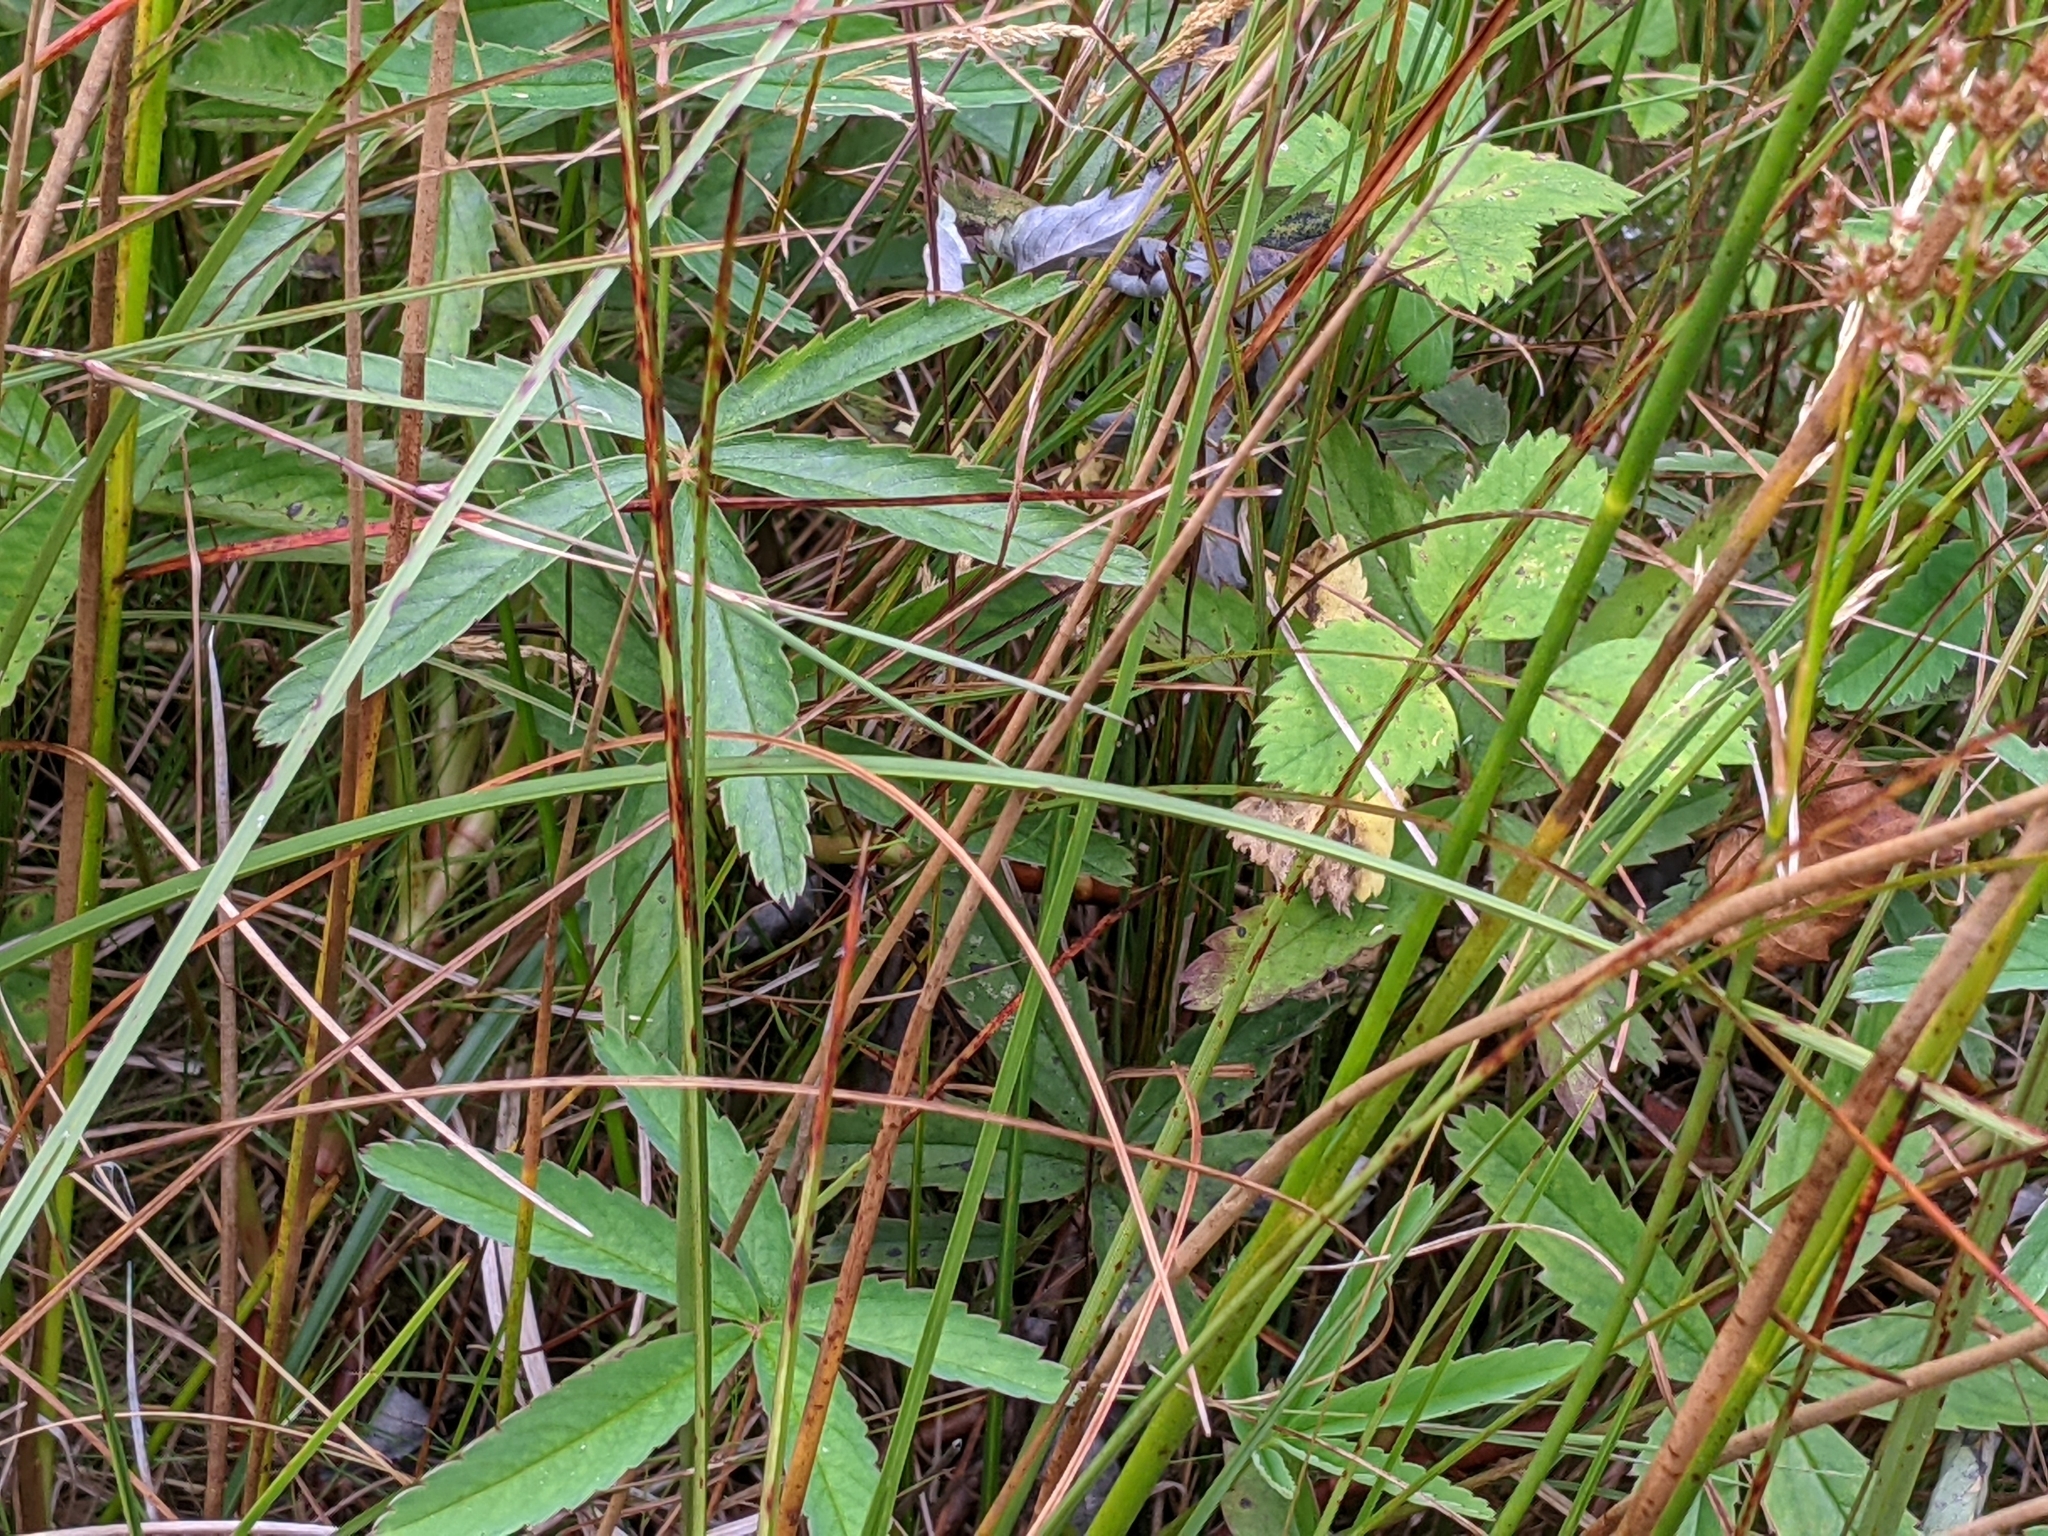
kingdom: Plantae
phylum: Tracheophyta
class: Magnoliopsida
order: Rosales
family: Rosaceae
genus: Comarum
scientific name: Comarum palustre
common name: Marsh cinquefoil
